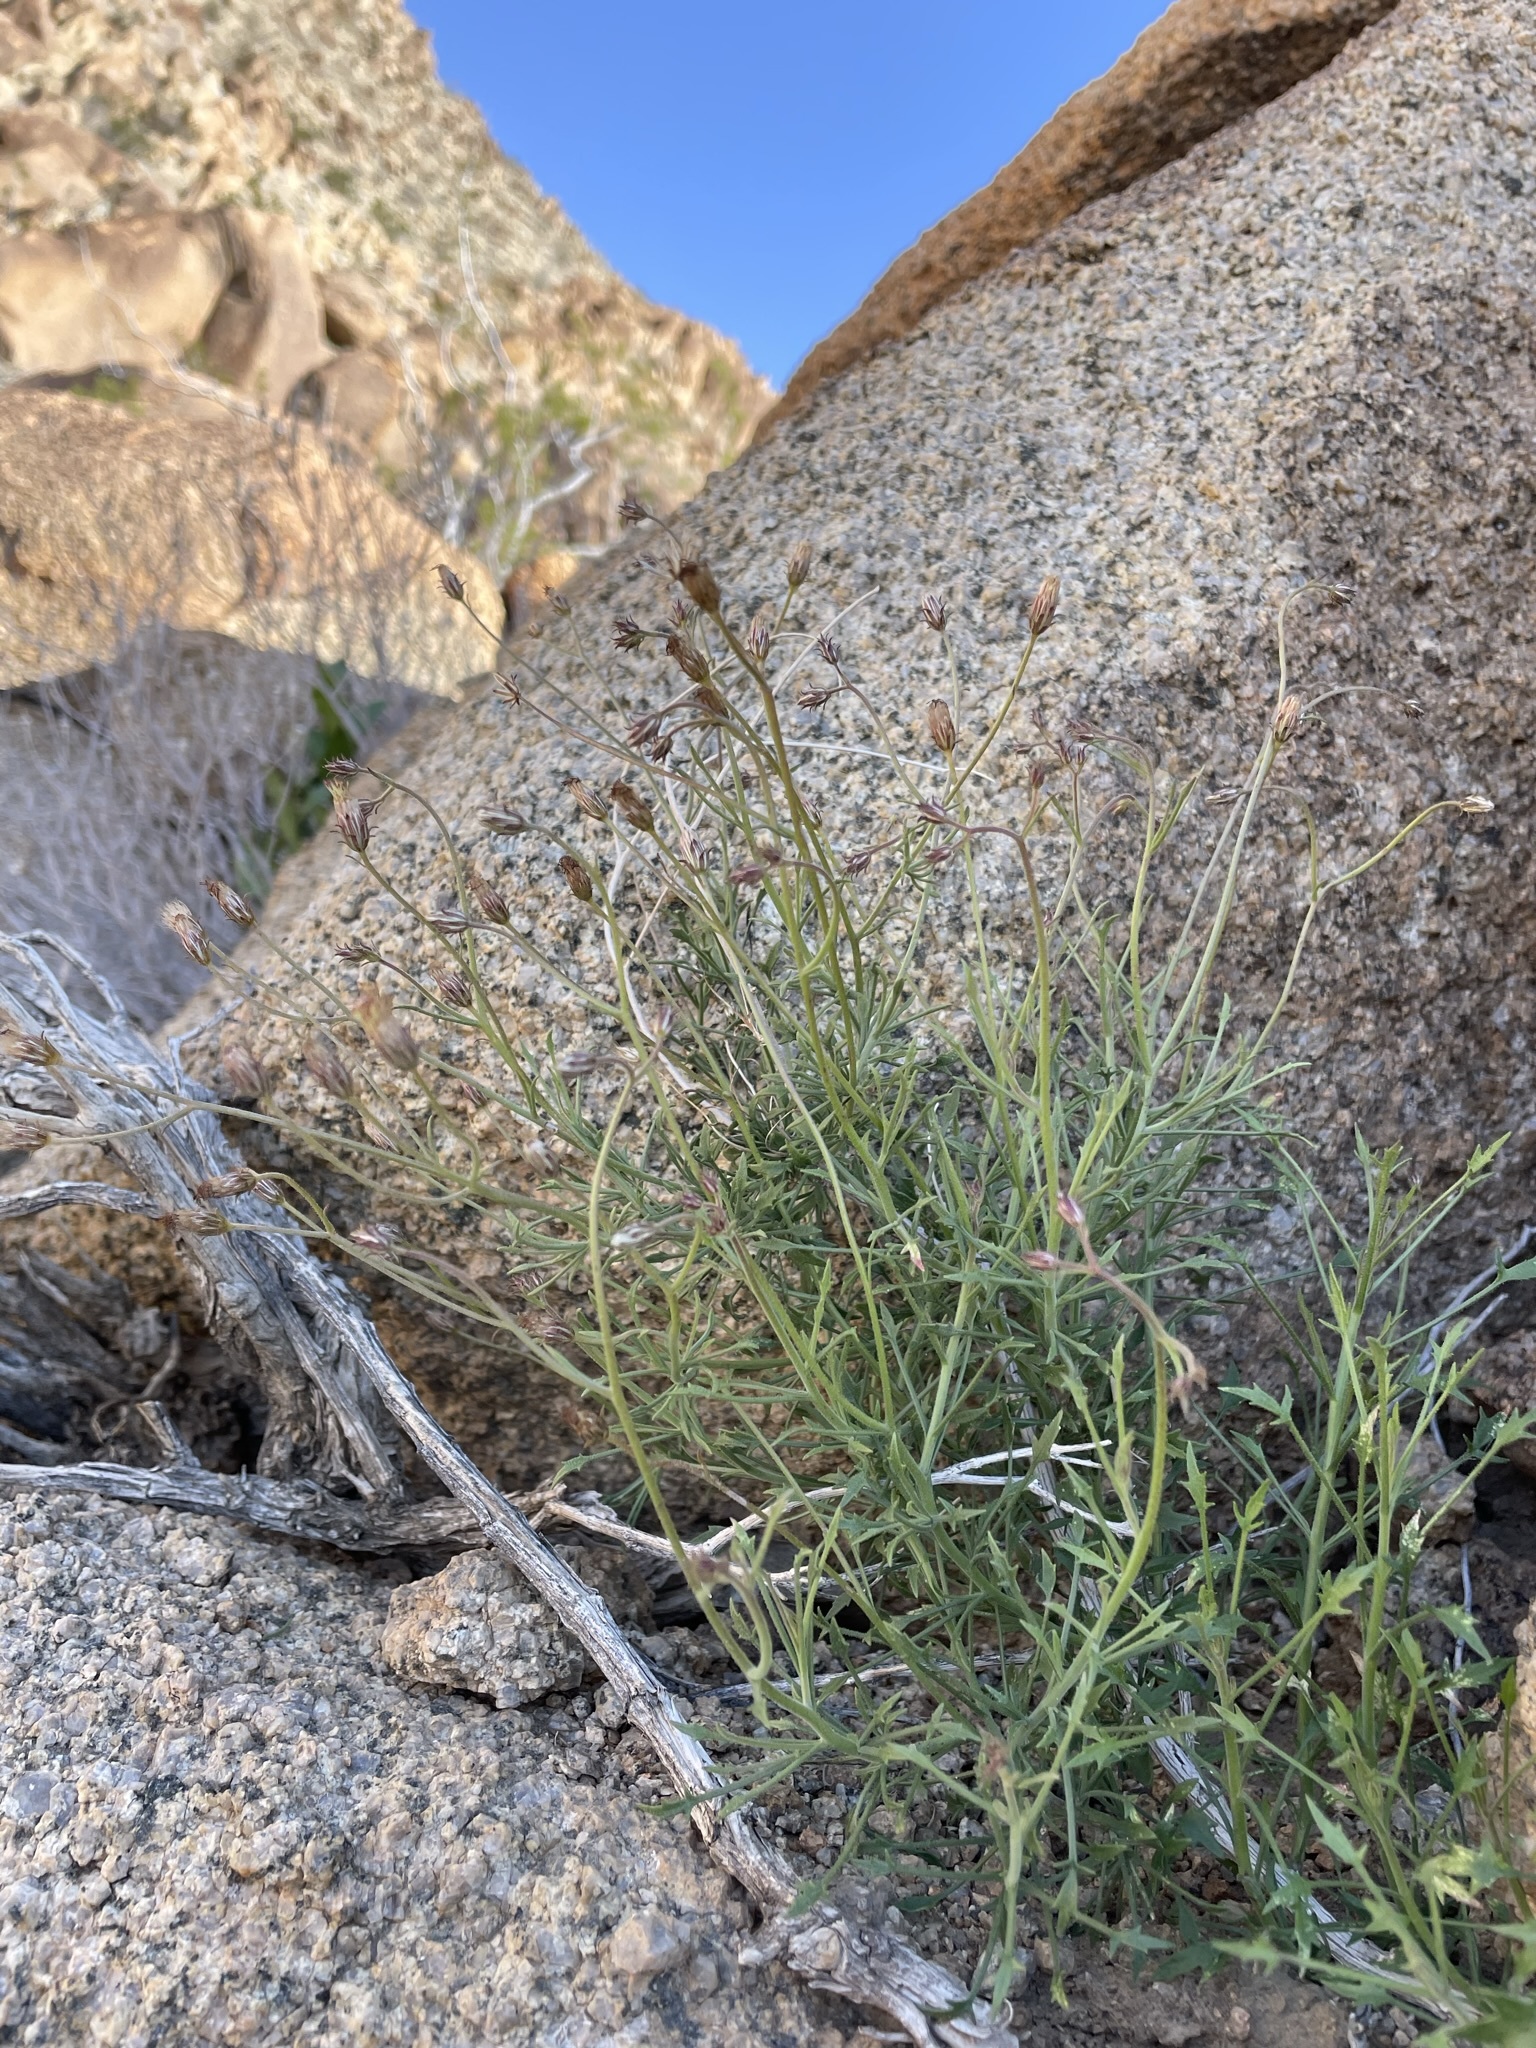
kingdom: Plantae
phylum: Tracheophyta
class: Magnoliopsida
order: Asterales
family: Asteraceae
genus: Pleurocoronis
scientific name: Pleurocoronis pluriseta
